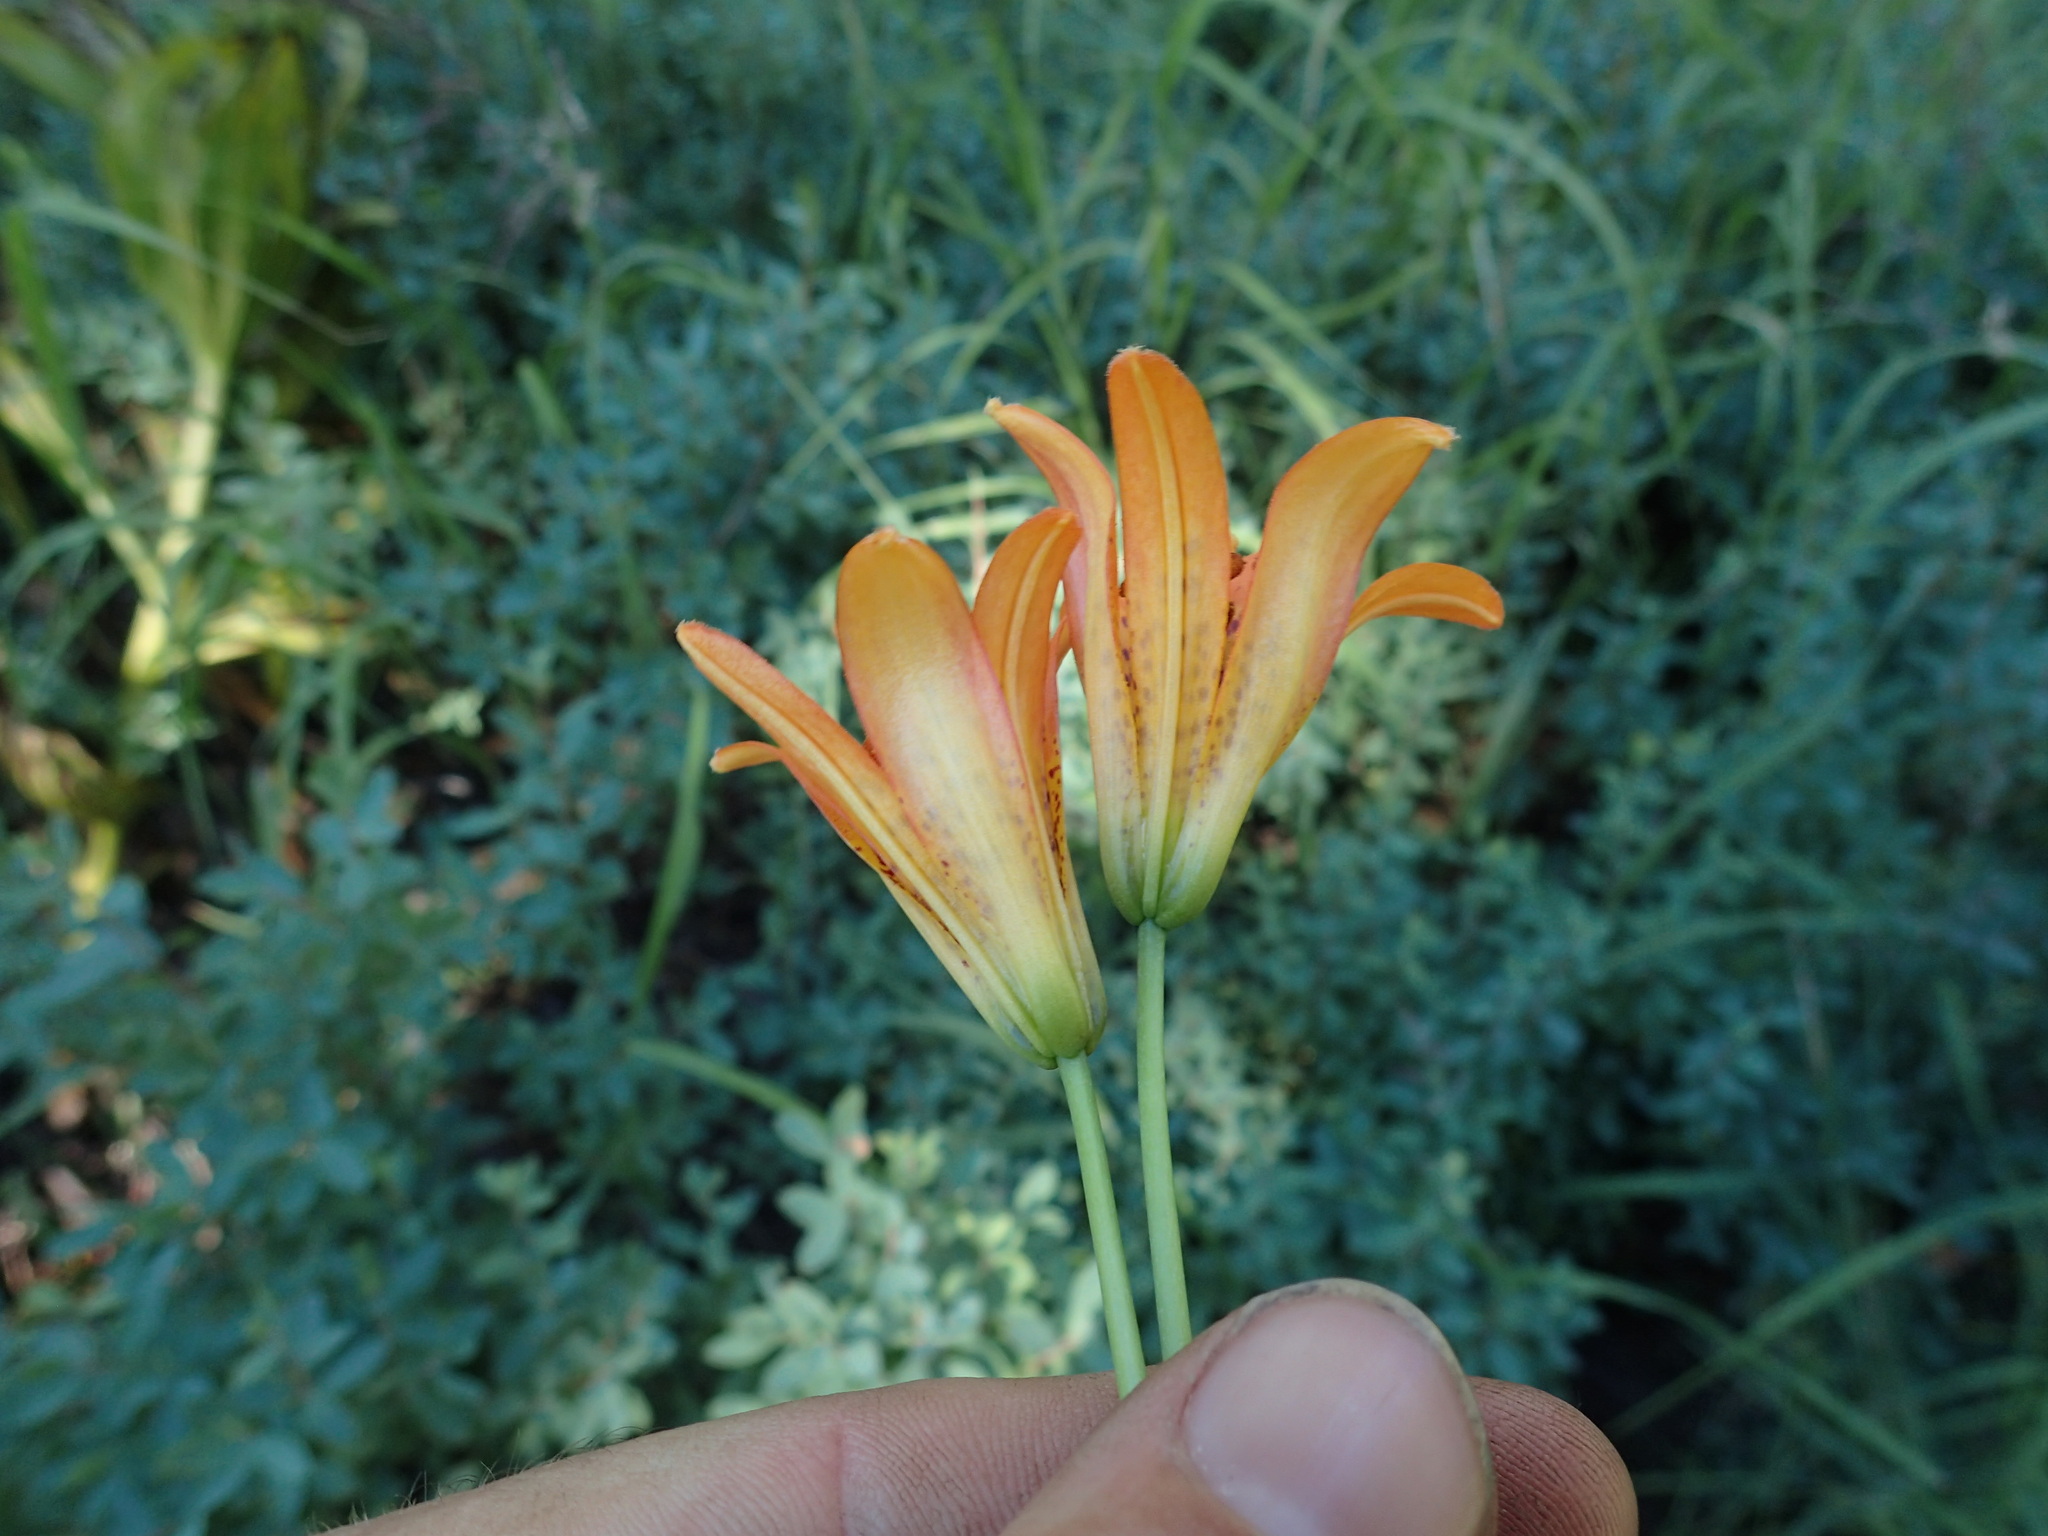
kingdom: Plantae
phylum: Tracheophyta
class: Liliopsida
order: Liliales
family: Liliaceae
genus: Lilium
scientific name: Lilium parvum
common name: Alpine lily
